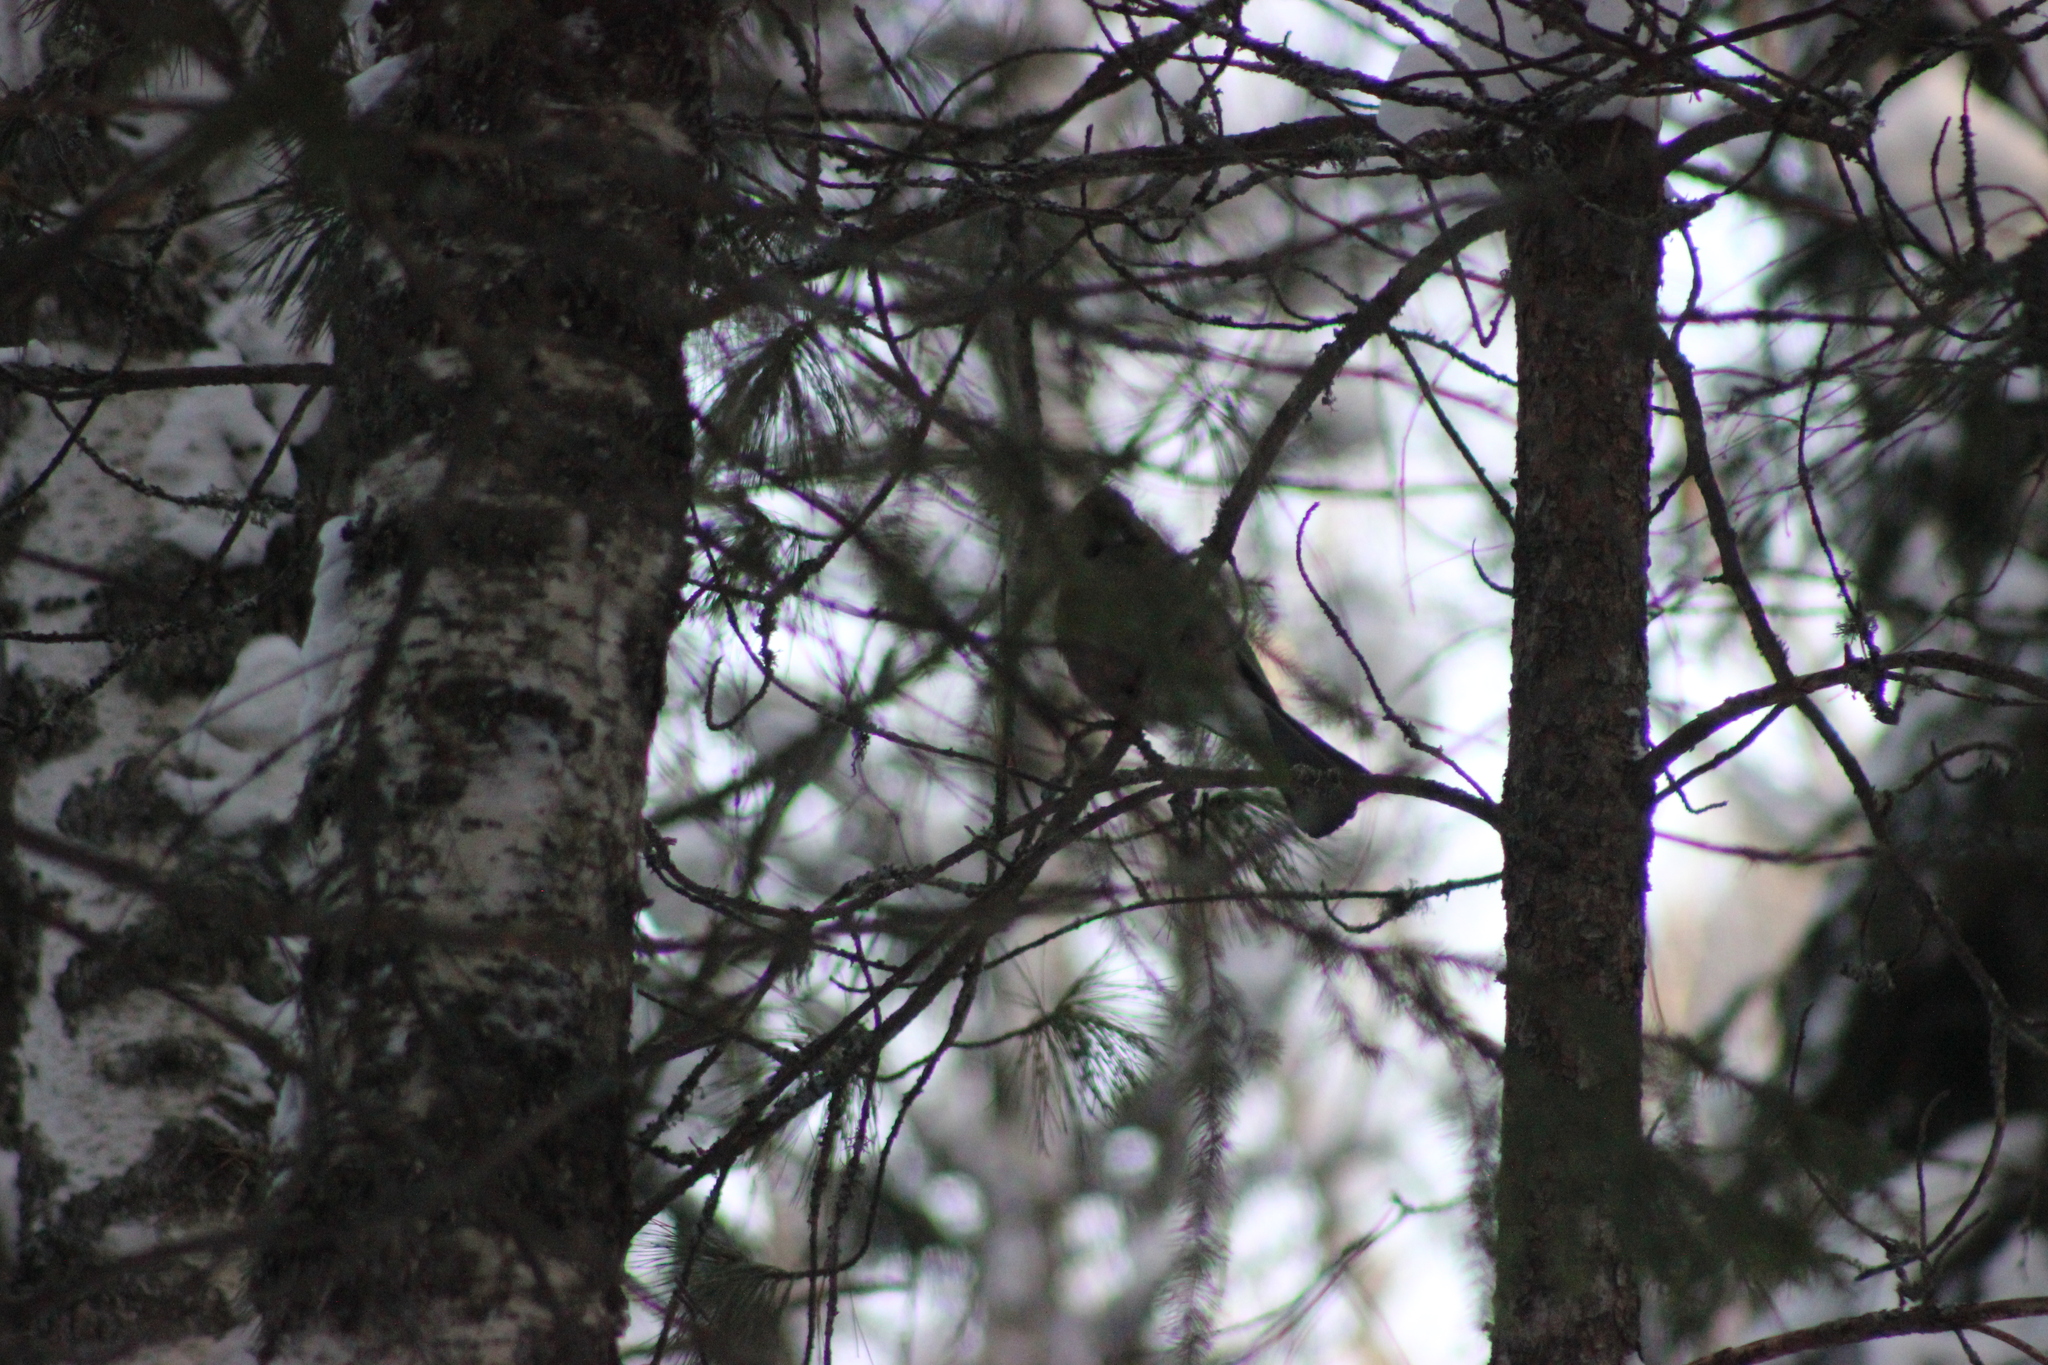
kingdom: Animalia
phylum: Chordata
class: Aves
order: Passeriformes
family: Corvidae
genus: Garrulus
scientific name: Garrulus glandarius
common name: Eurasian jay
